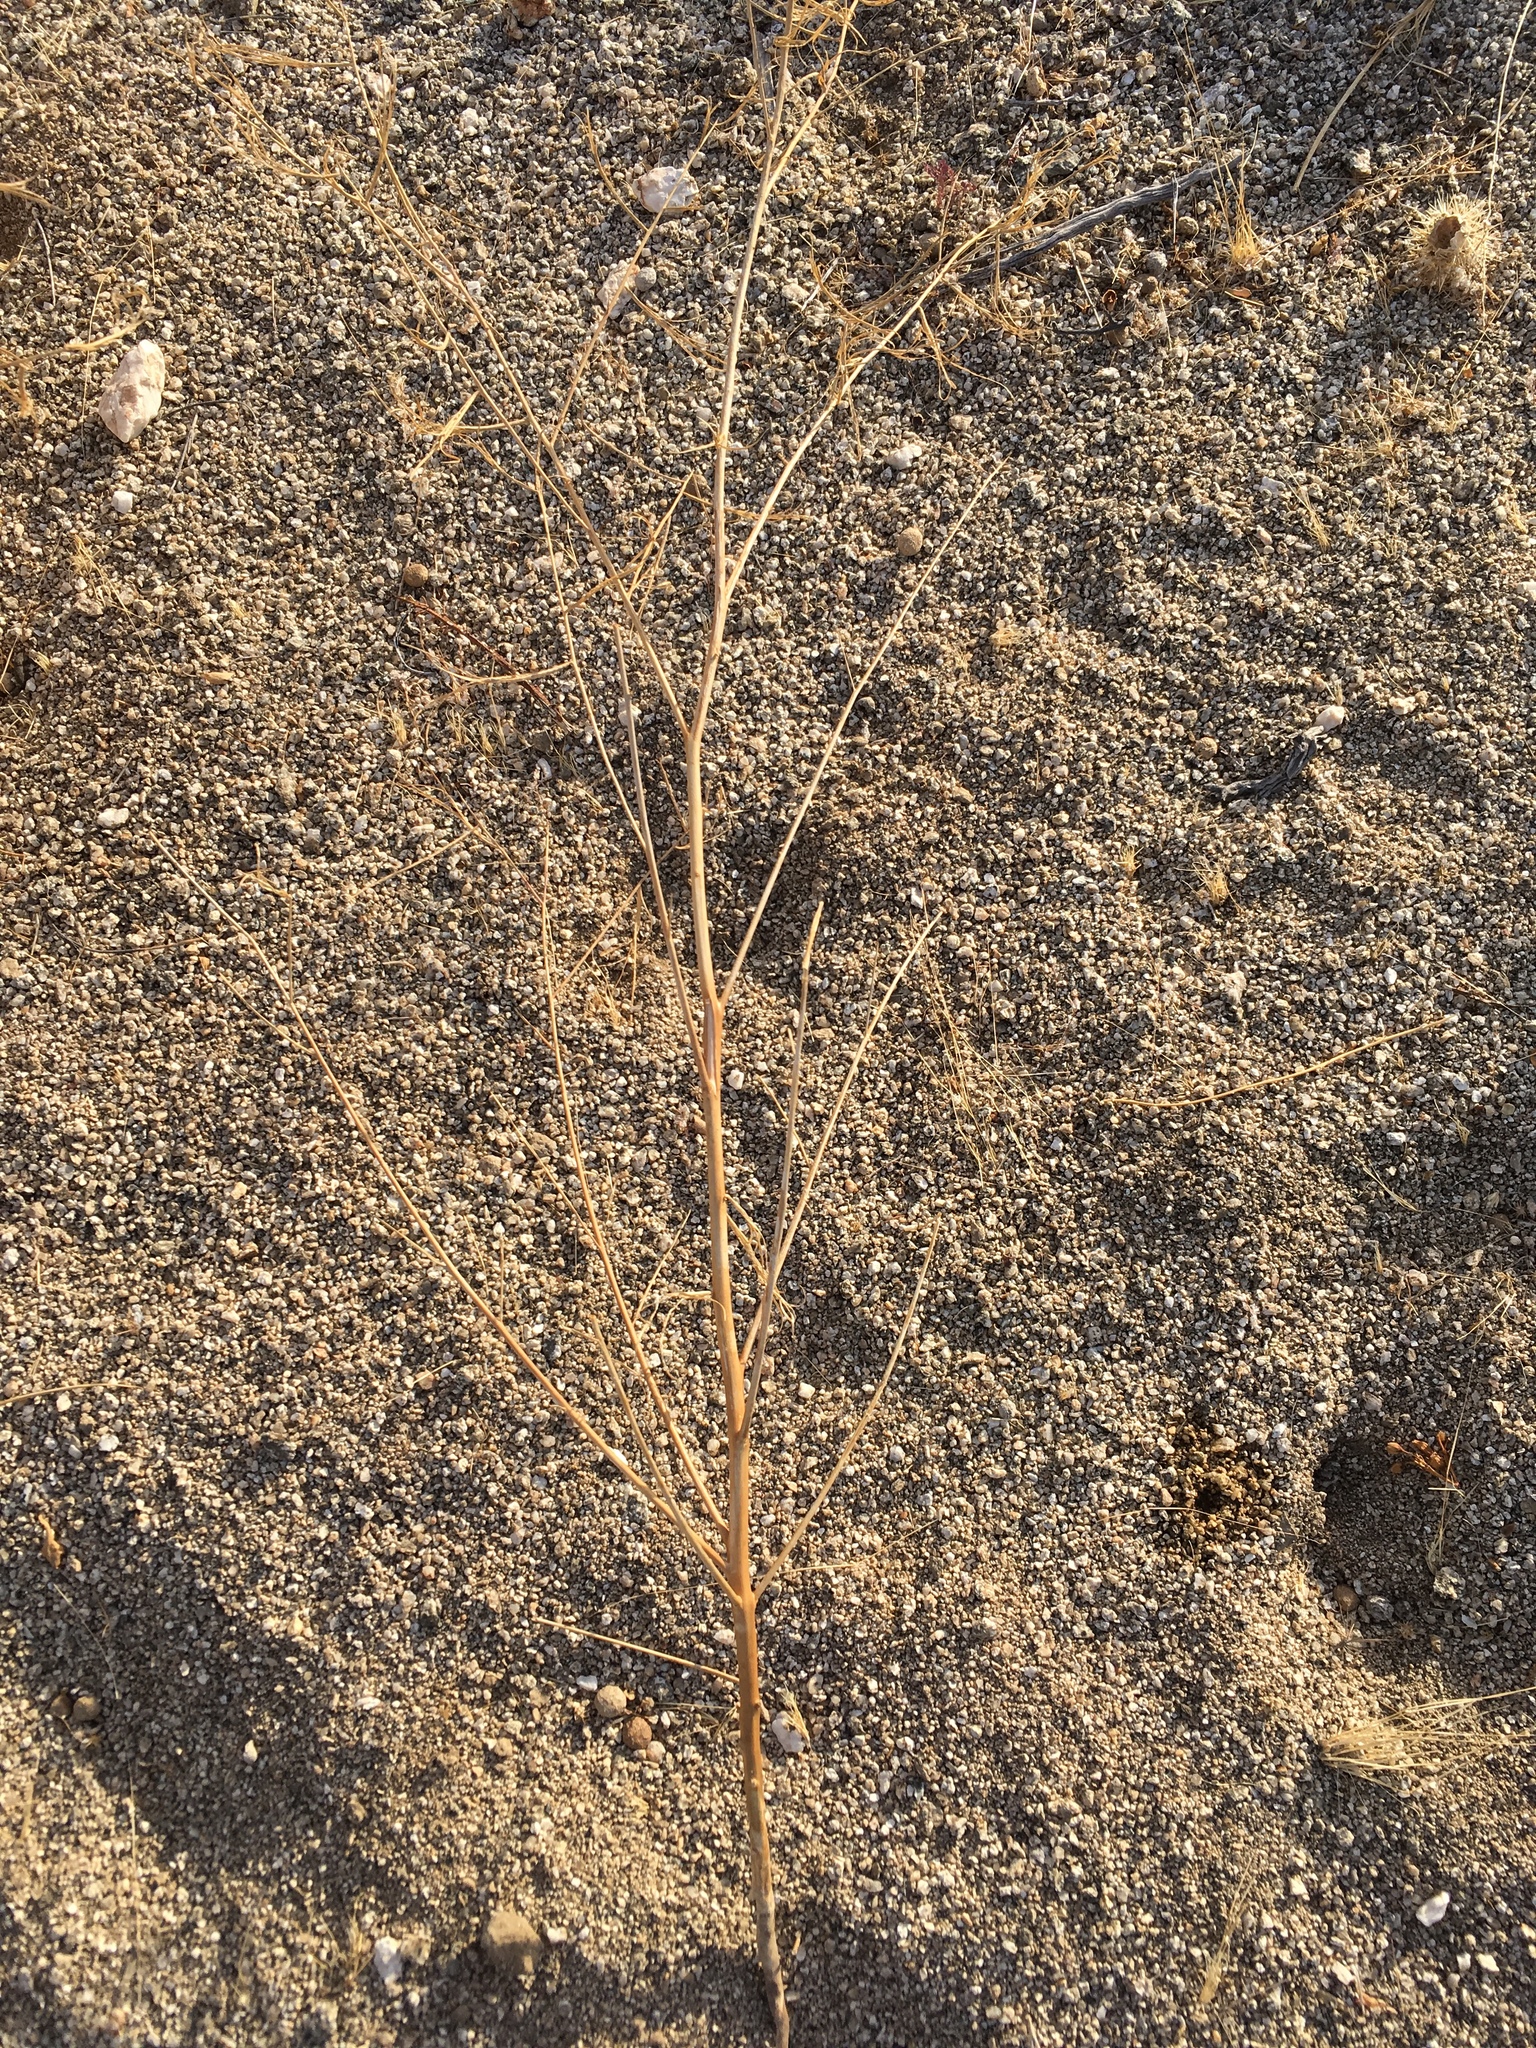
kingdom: Plantae
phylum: Tracheophyta
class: Magnoliopsida
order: Myrtales
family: Onagraceae
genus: Eulobus
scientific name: Eulobus californicus
